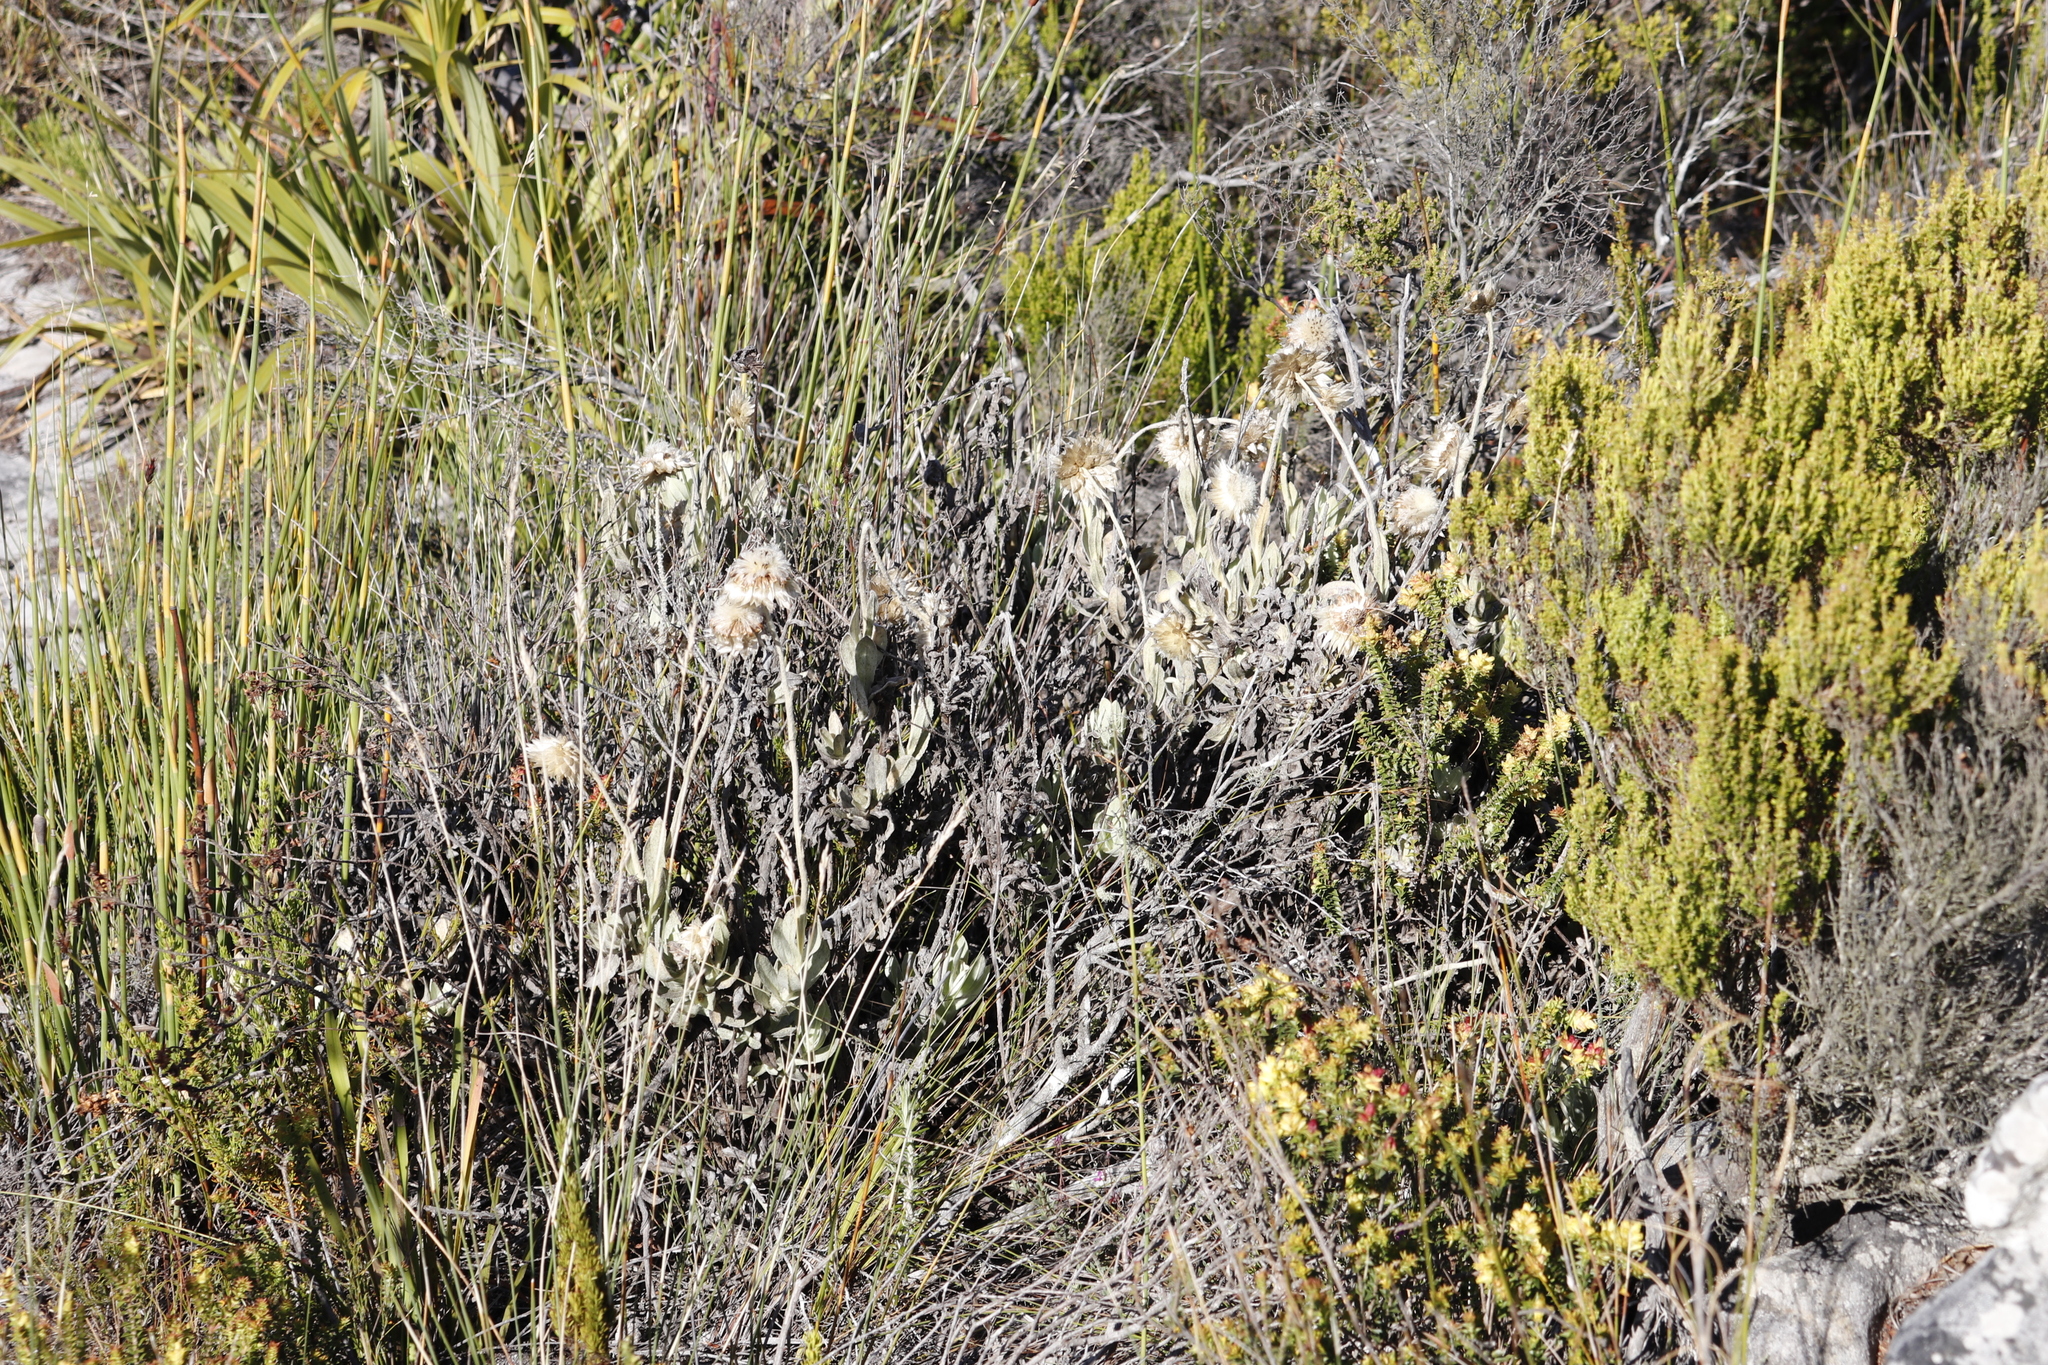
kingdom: Plantae
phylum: Tracheophyta
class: Magnoliopsida
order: Asterales
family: Asteraceae
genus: Syncarpha
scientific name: Syncarpha speciosissima
